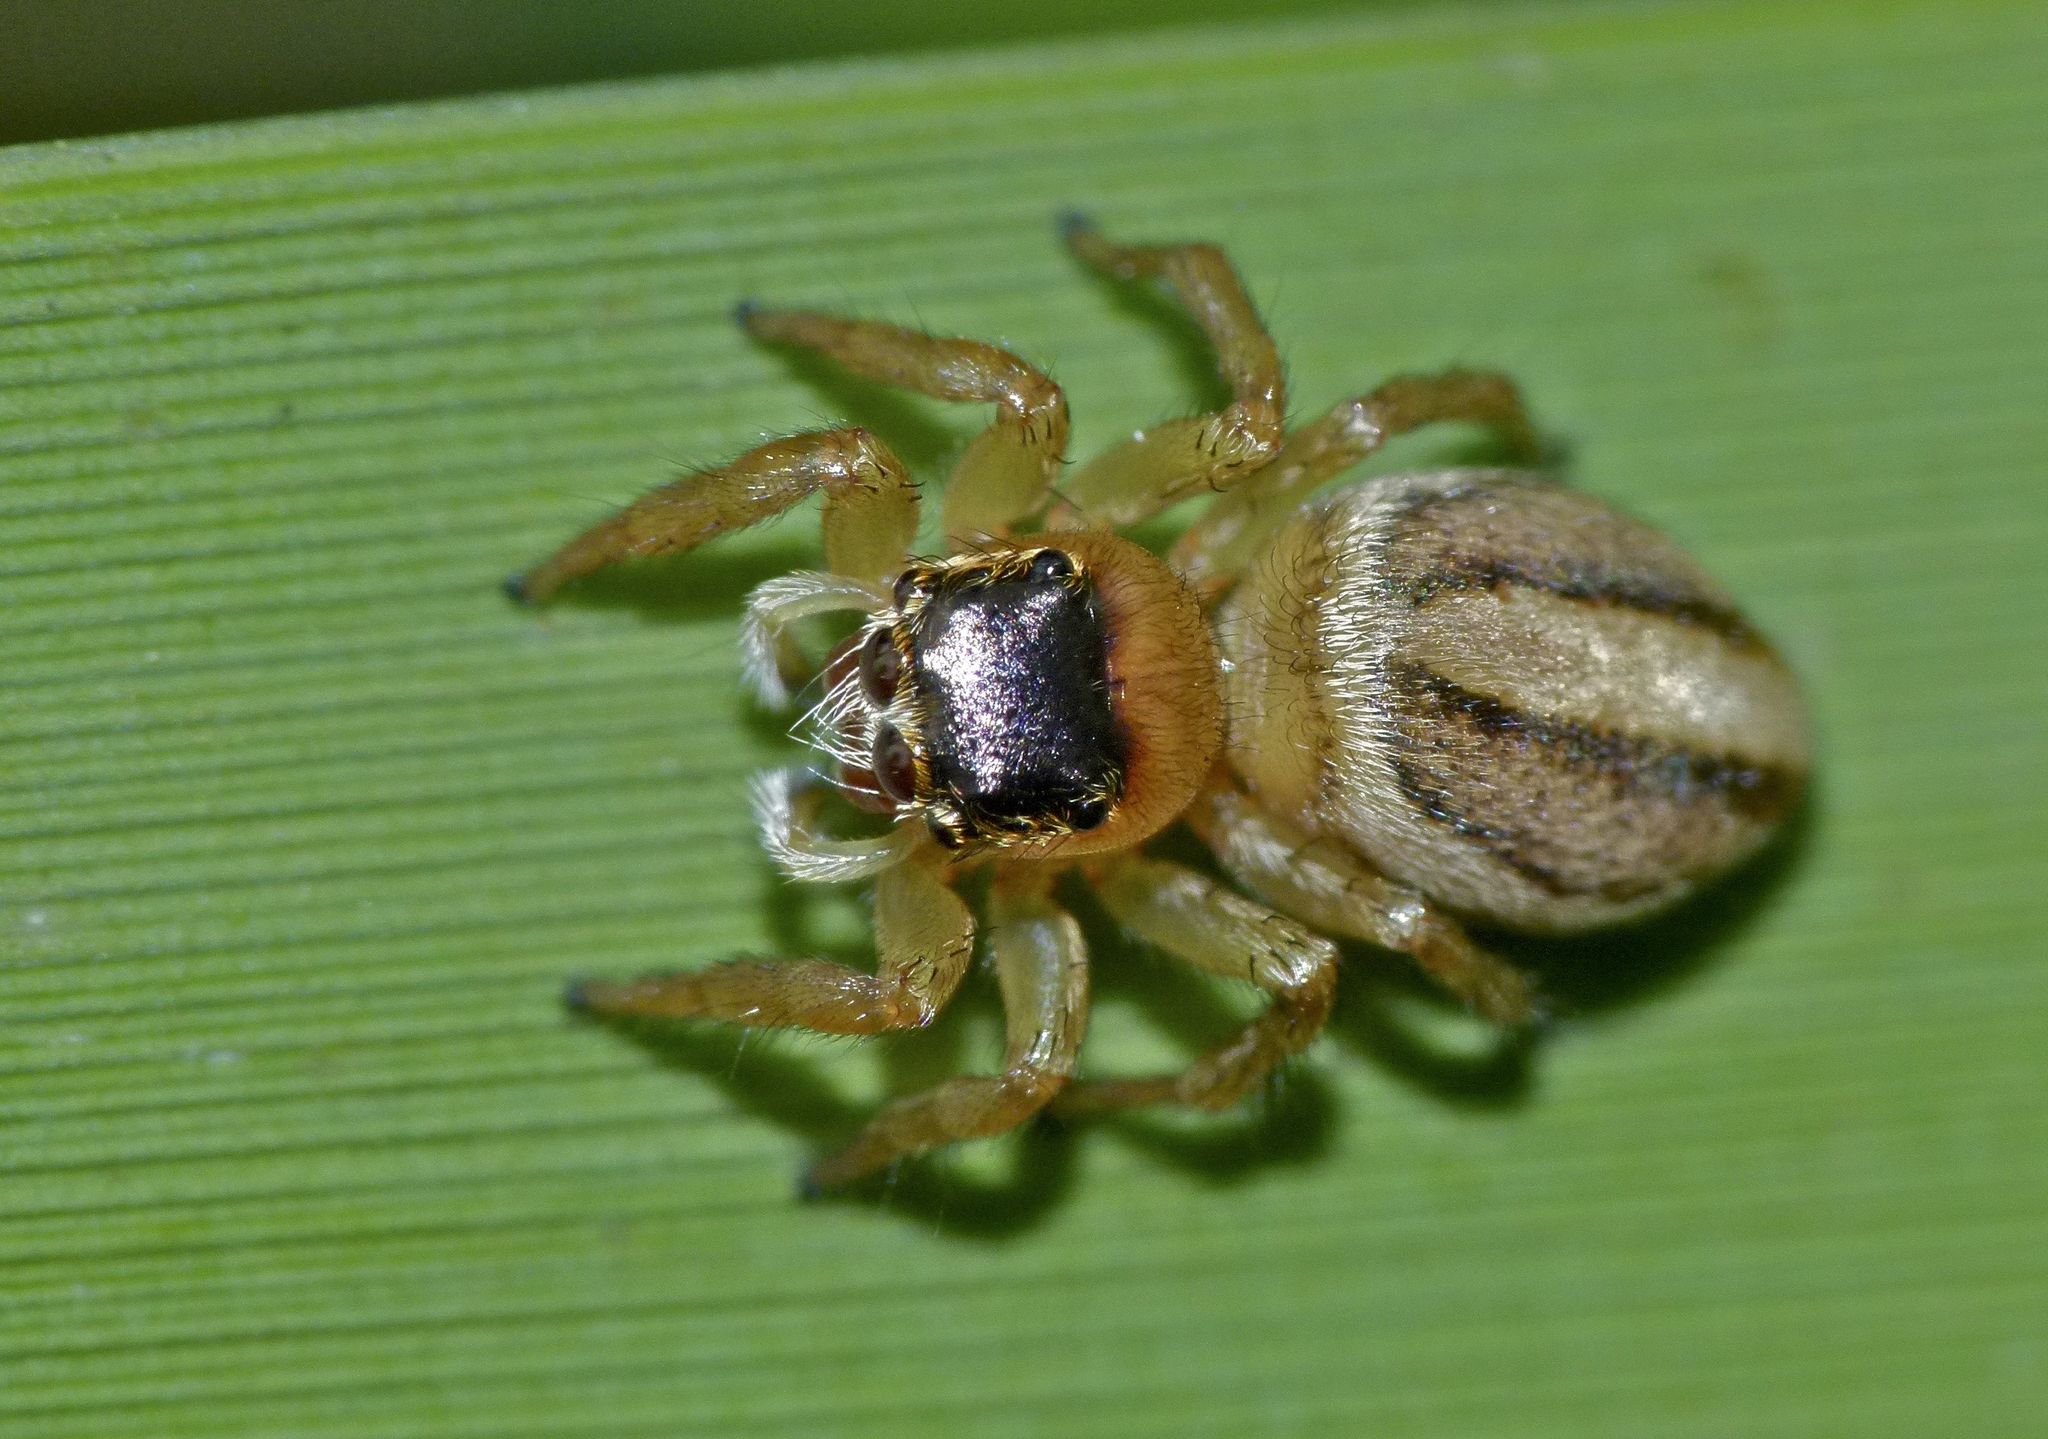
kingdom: Animalia
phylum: Arthropoda
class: Arachnida
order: Araneae
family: Salticidae
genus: Maratus
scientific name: Maratus scutulatus
